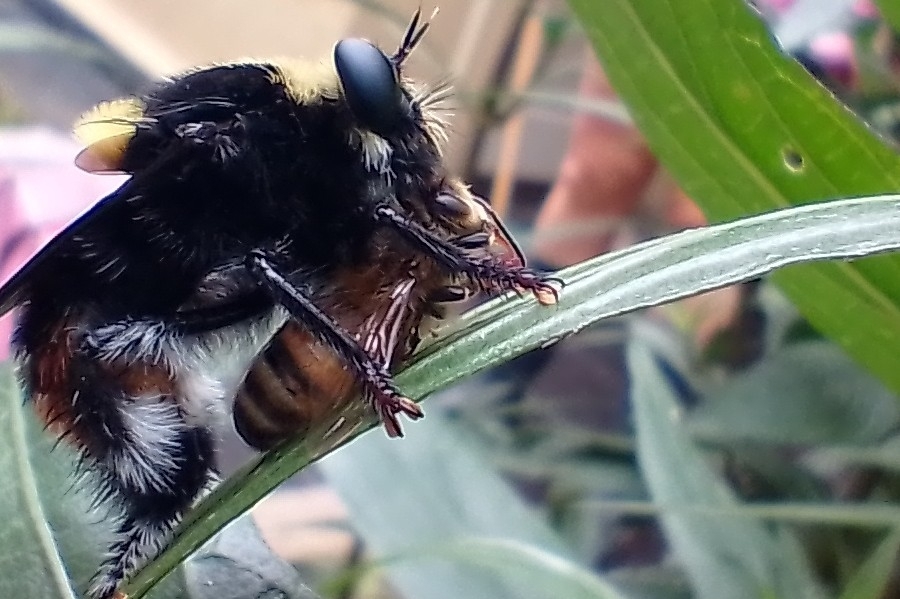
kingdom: Animalia
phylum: Arthropoda
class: Insecta
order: Diptera
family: Asilidae
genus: Mallophora
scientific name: Mallophora ruficauda
